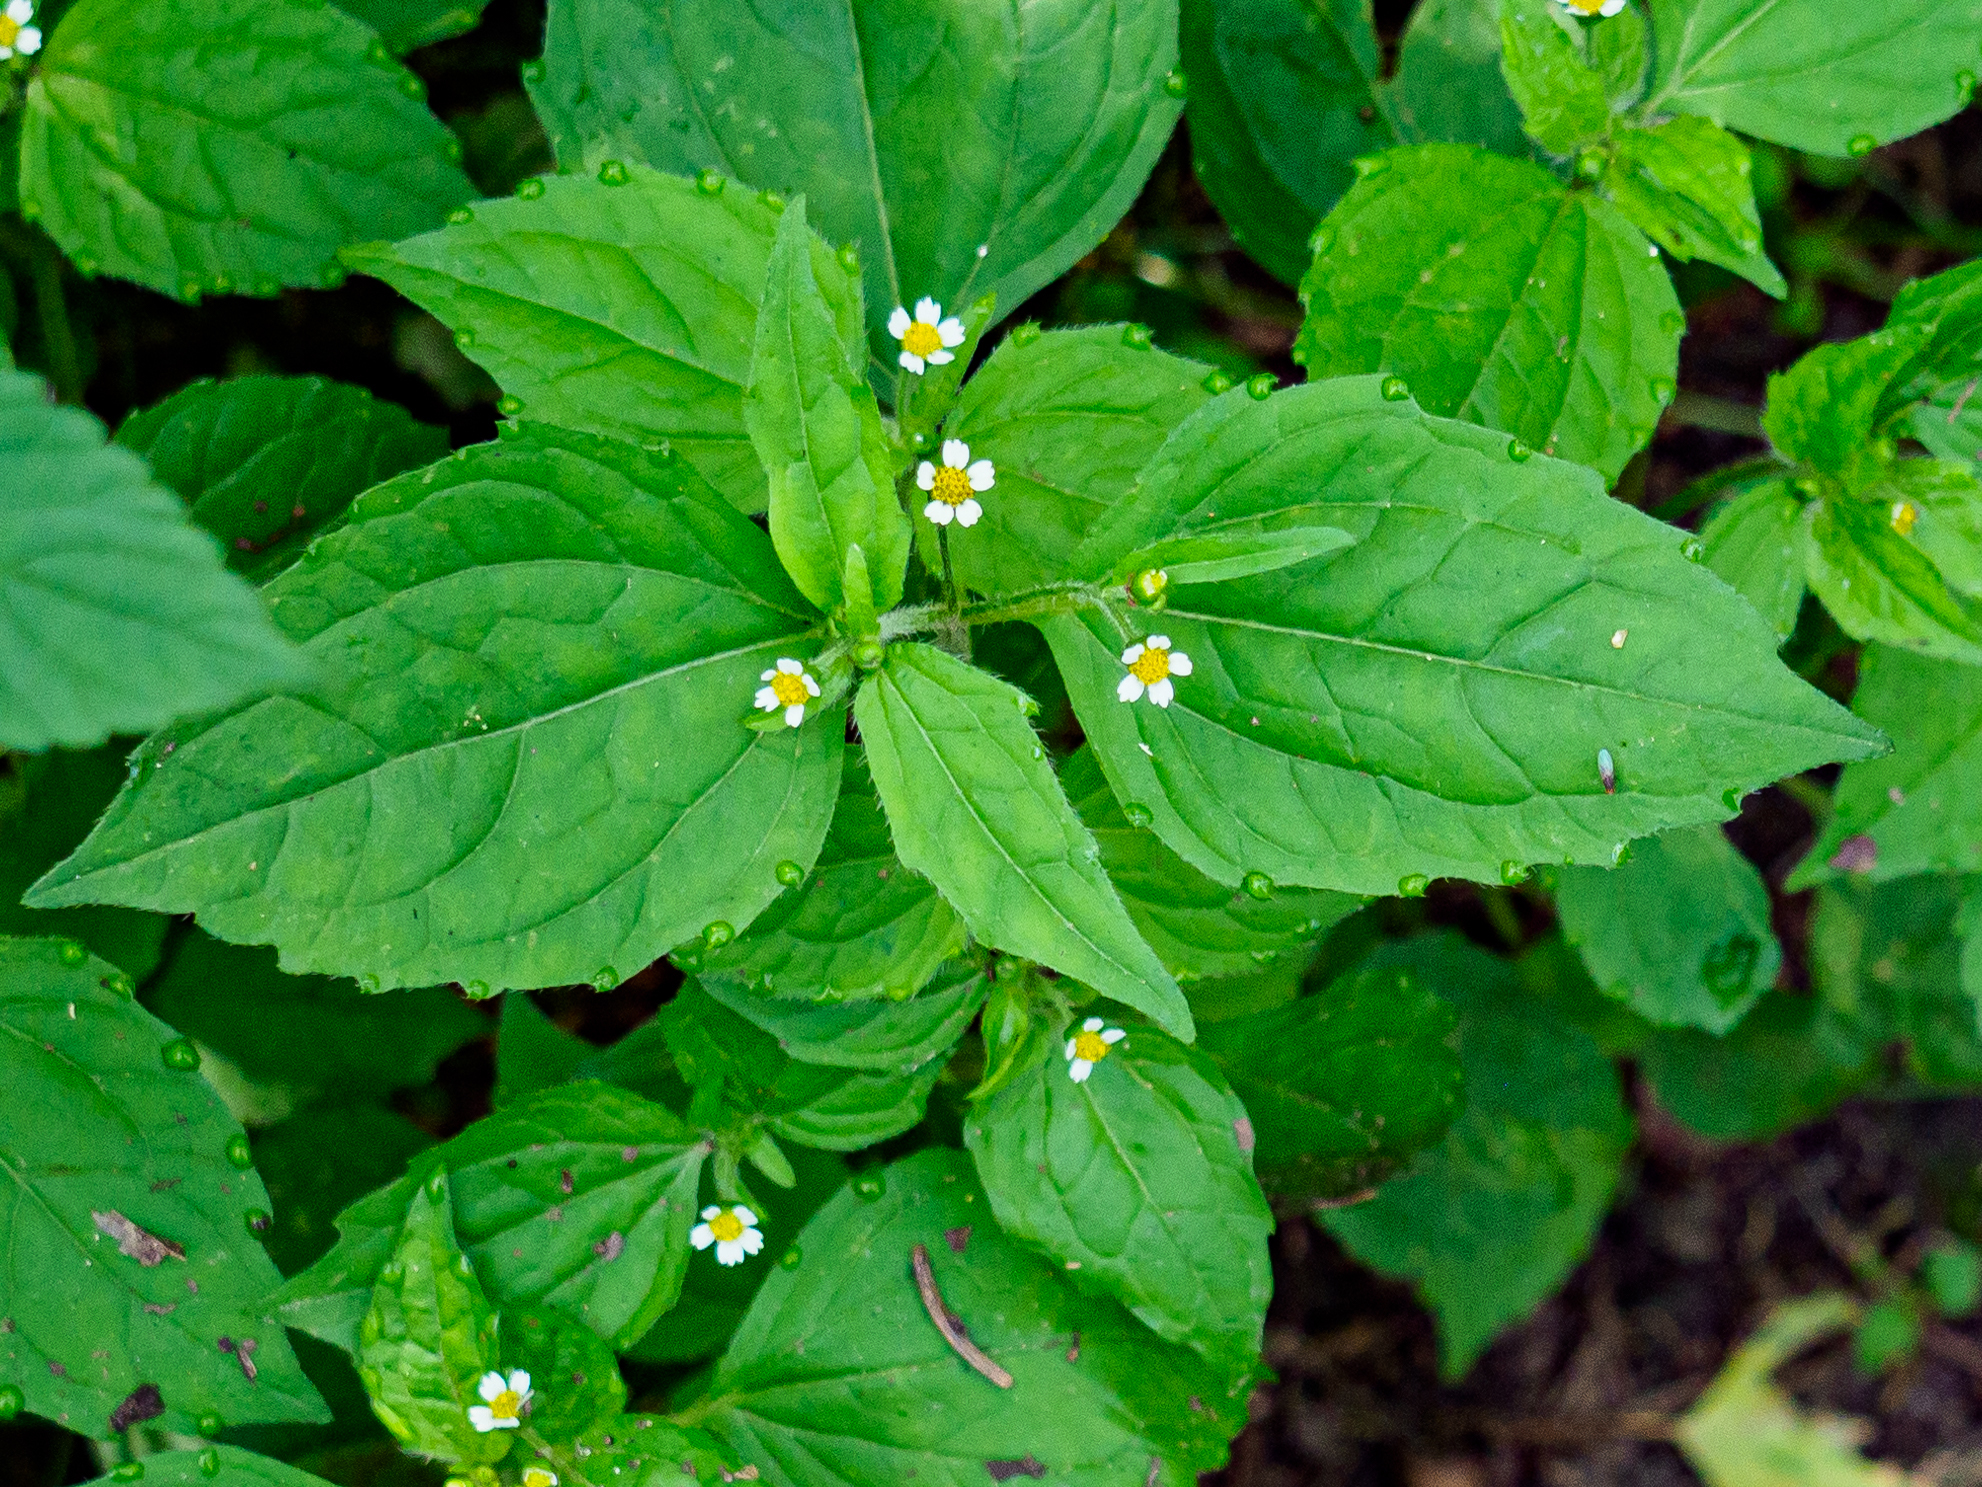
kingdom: Plantae
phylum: Tracheophyta
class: Magnoliopsida
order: Asterales
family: Asteraceae
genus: Galinsoga
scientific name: Galinsoga quadriradiata
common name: Shaggy soldier
